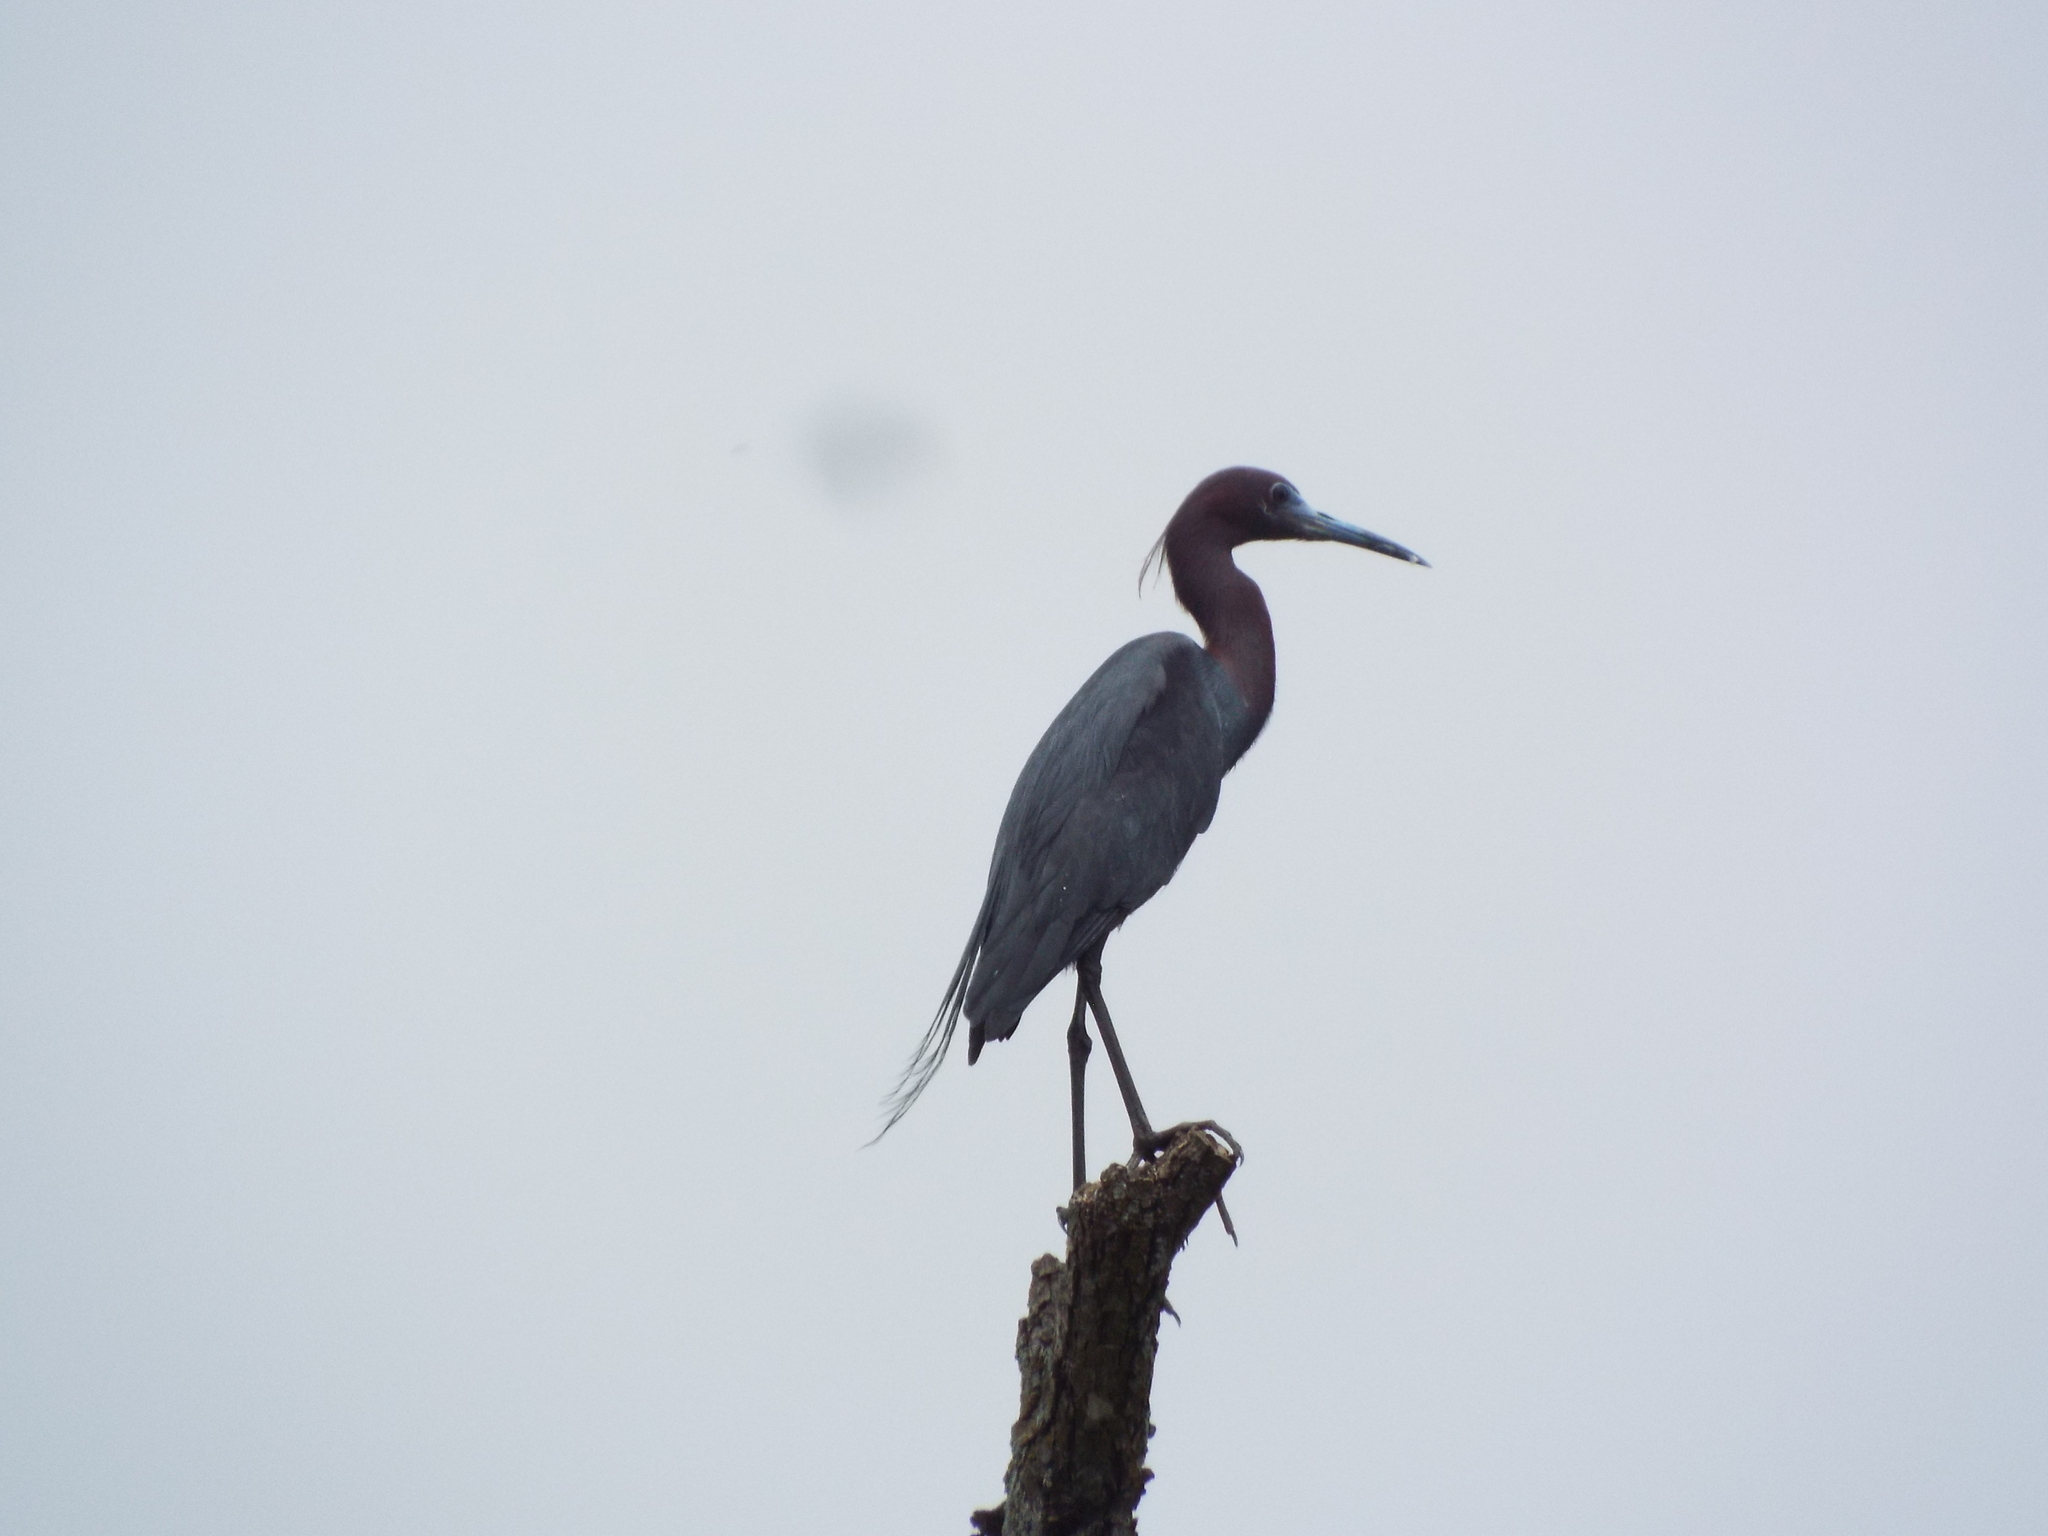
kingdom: Animalia
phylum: Chordata
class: Aves
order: Pelecaniformes
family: Ardeidae
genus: Egretta
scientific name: Egretta caerulea
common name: Little blue heron
